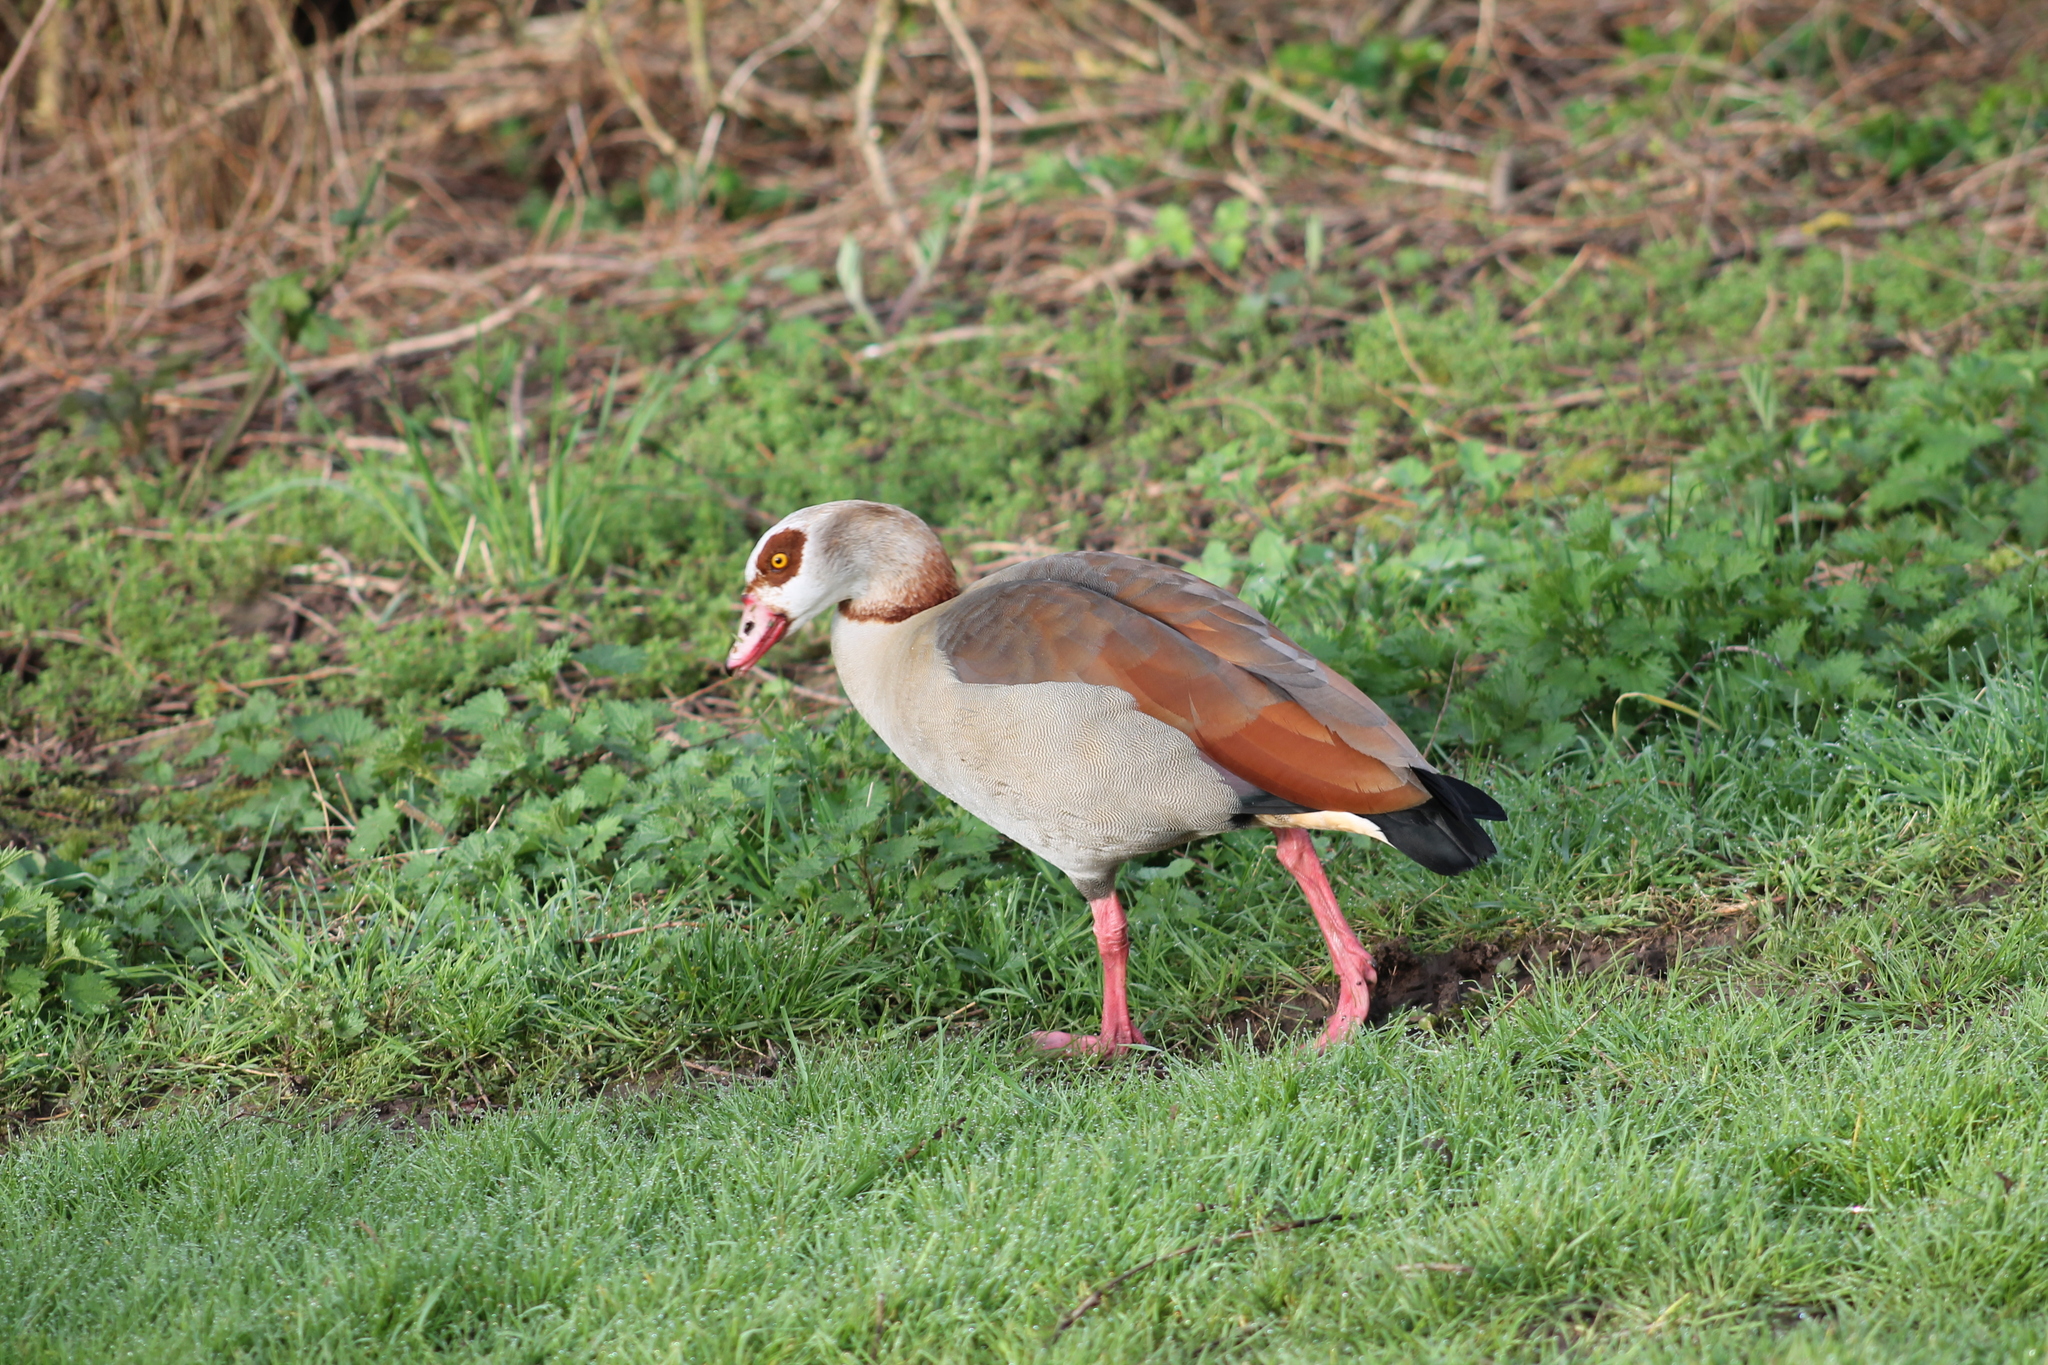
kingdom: Animalia
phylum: Chordata
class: Aves
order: Anseriformes
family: Anatidae
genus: Alopochen
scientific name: Alopochen aegyptiaca
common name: Egyptian goose
